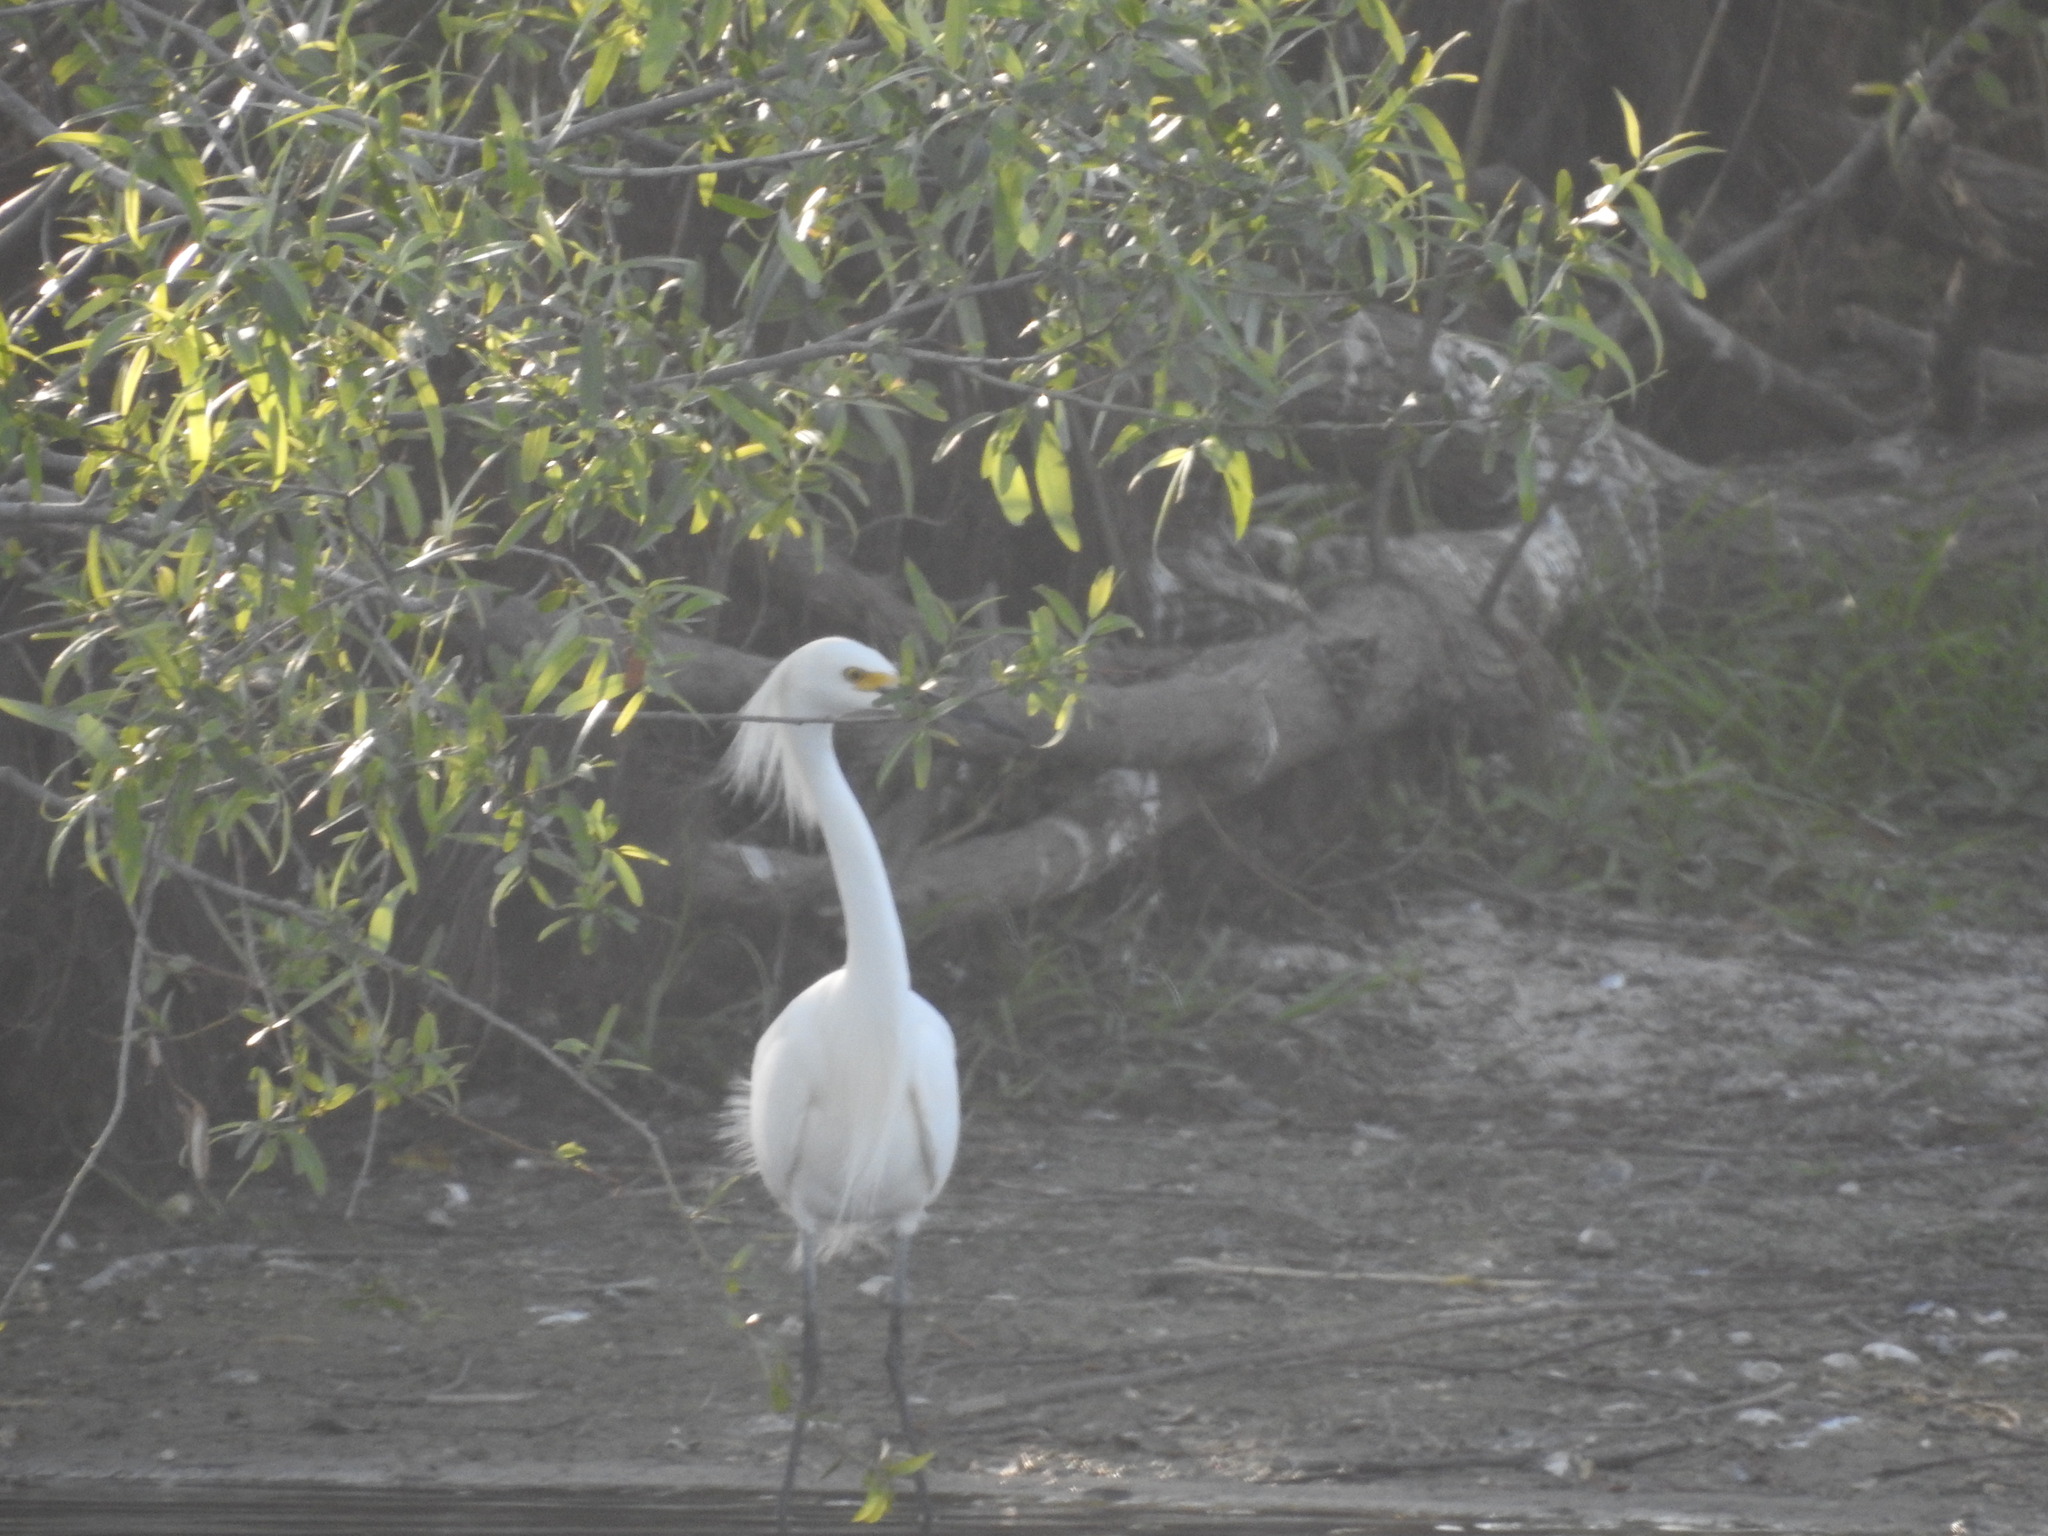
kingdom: Animalia
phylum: Chordata
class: Aves
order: Pelecaniformes
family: Ardeidae
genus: Egretta
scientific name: Egretta thula
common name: Snowy egret
